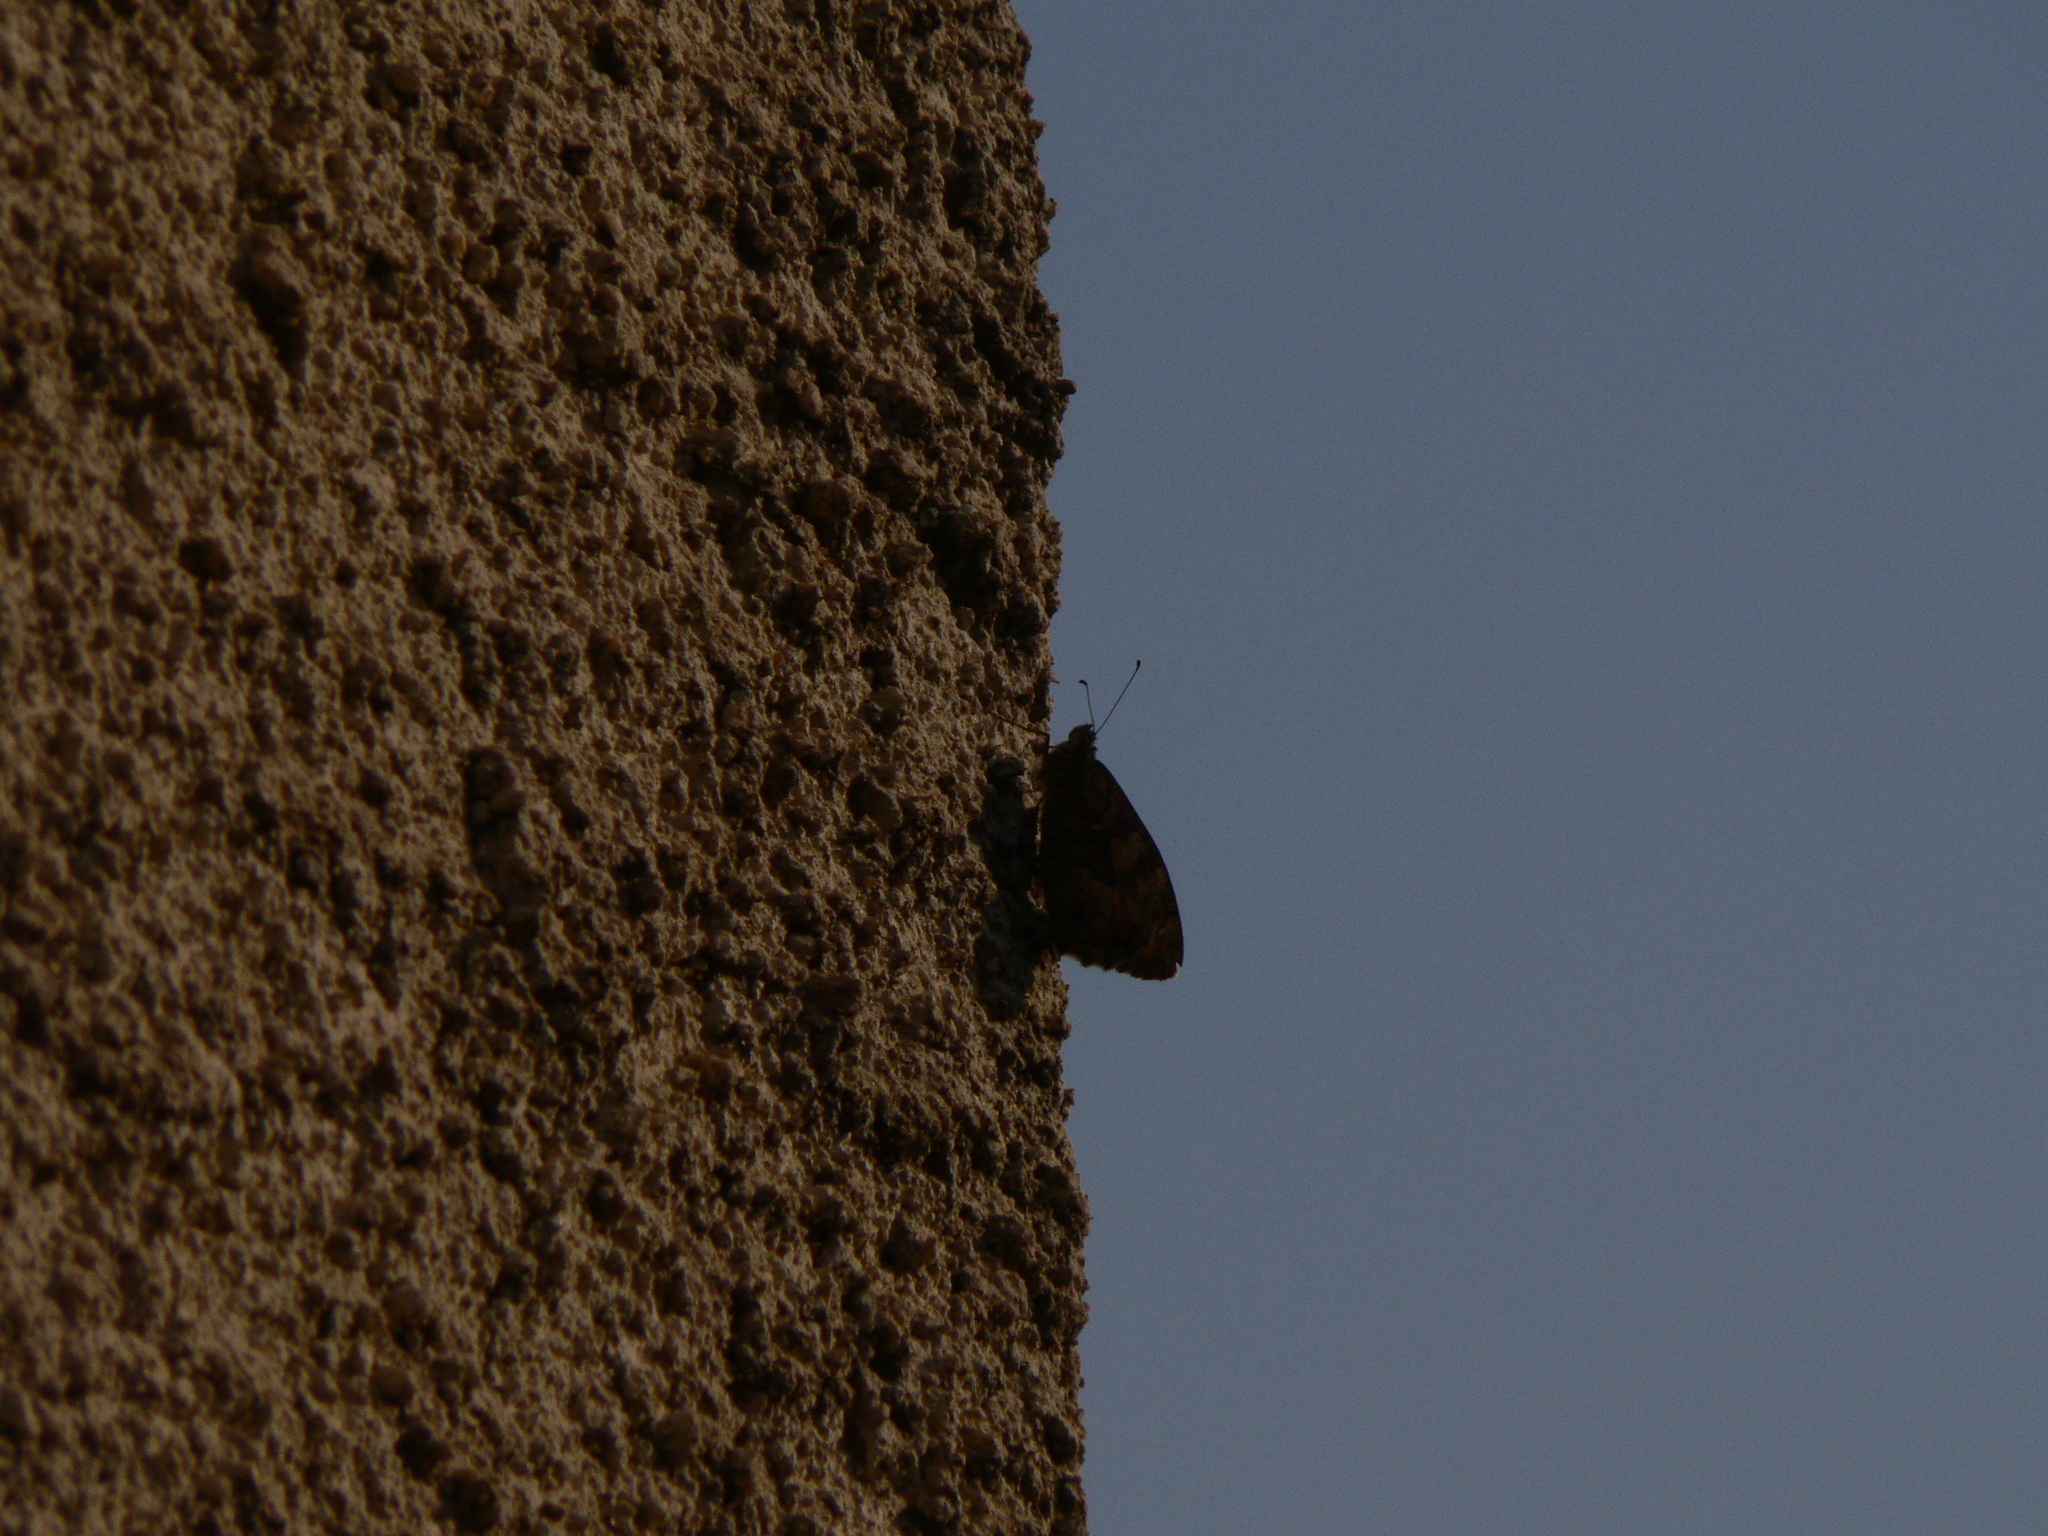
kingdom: Animalia
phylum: Arthropoda
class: Insecta
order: Lepidoptera
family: Nymphalidae
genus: Hipparchia
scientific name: Hipparchia semele
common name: Grayling
